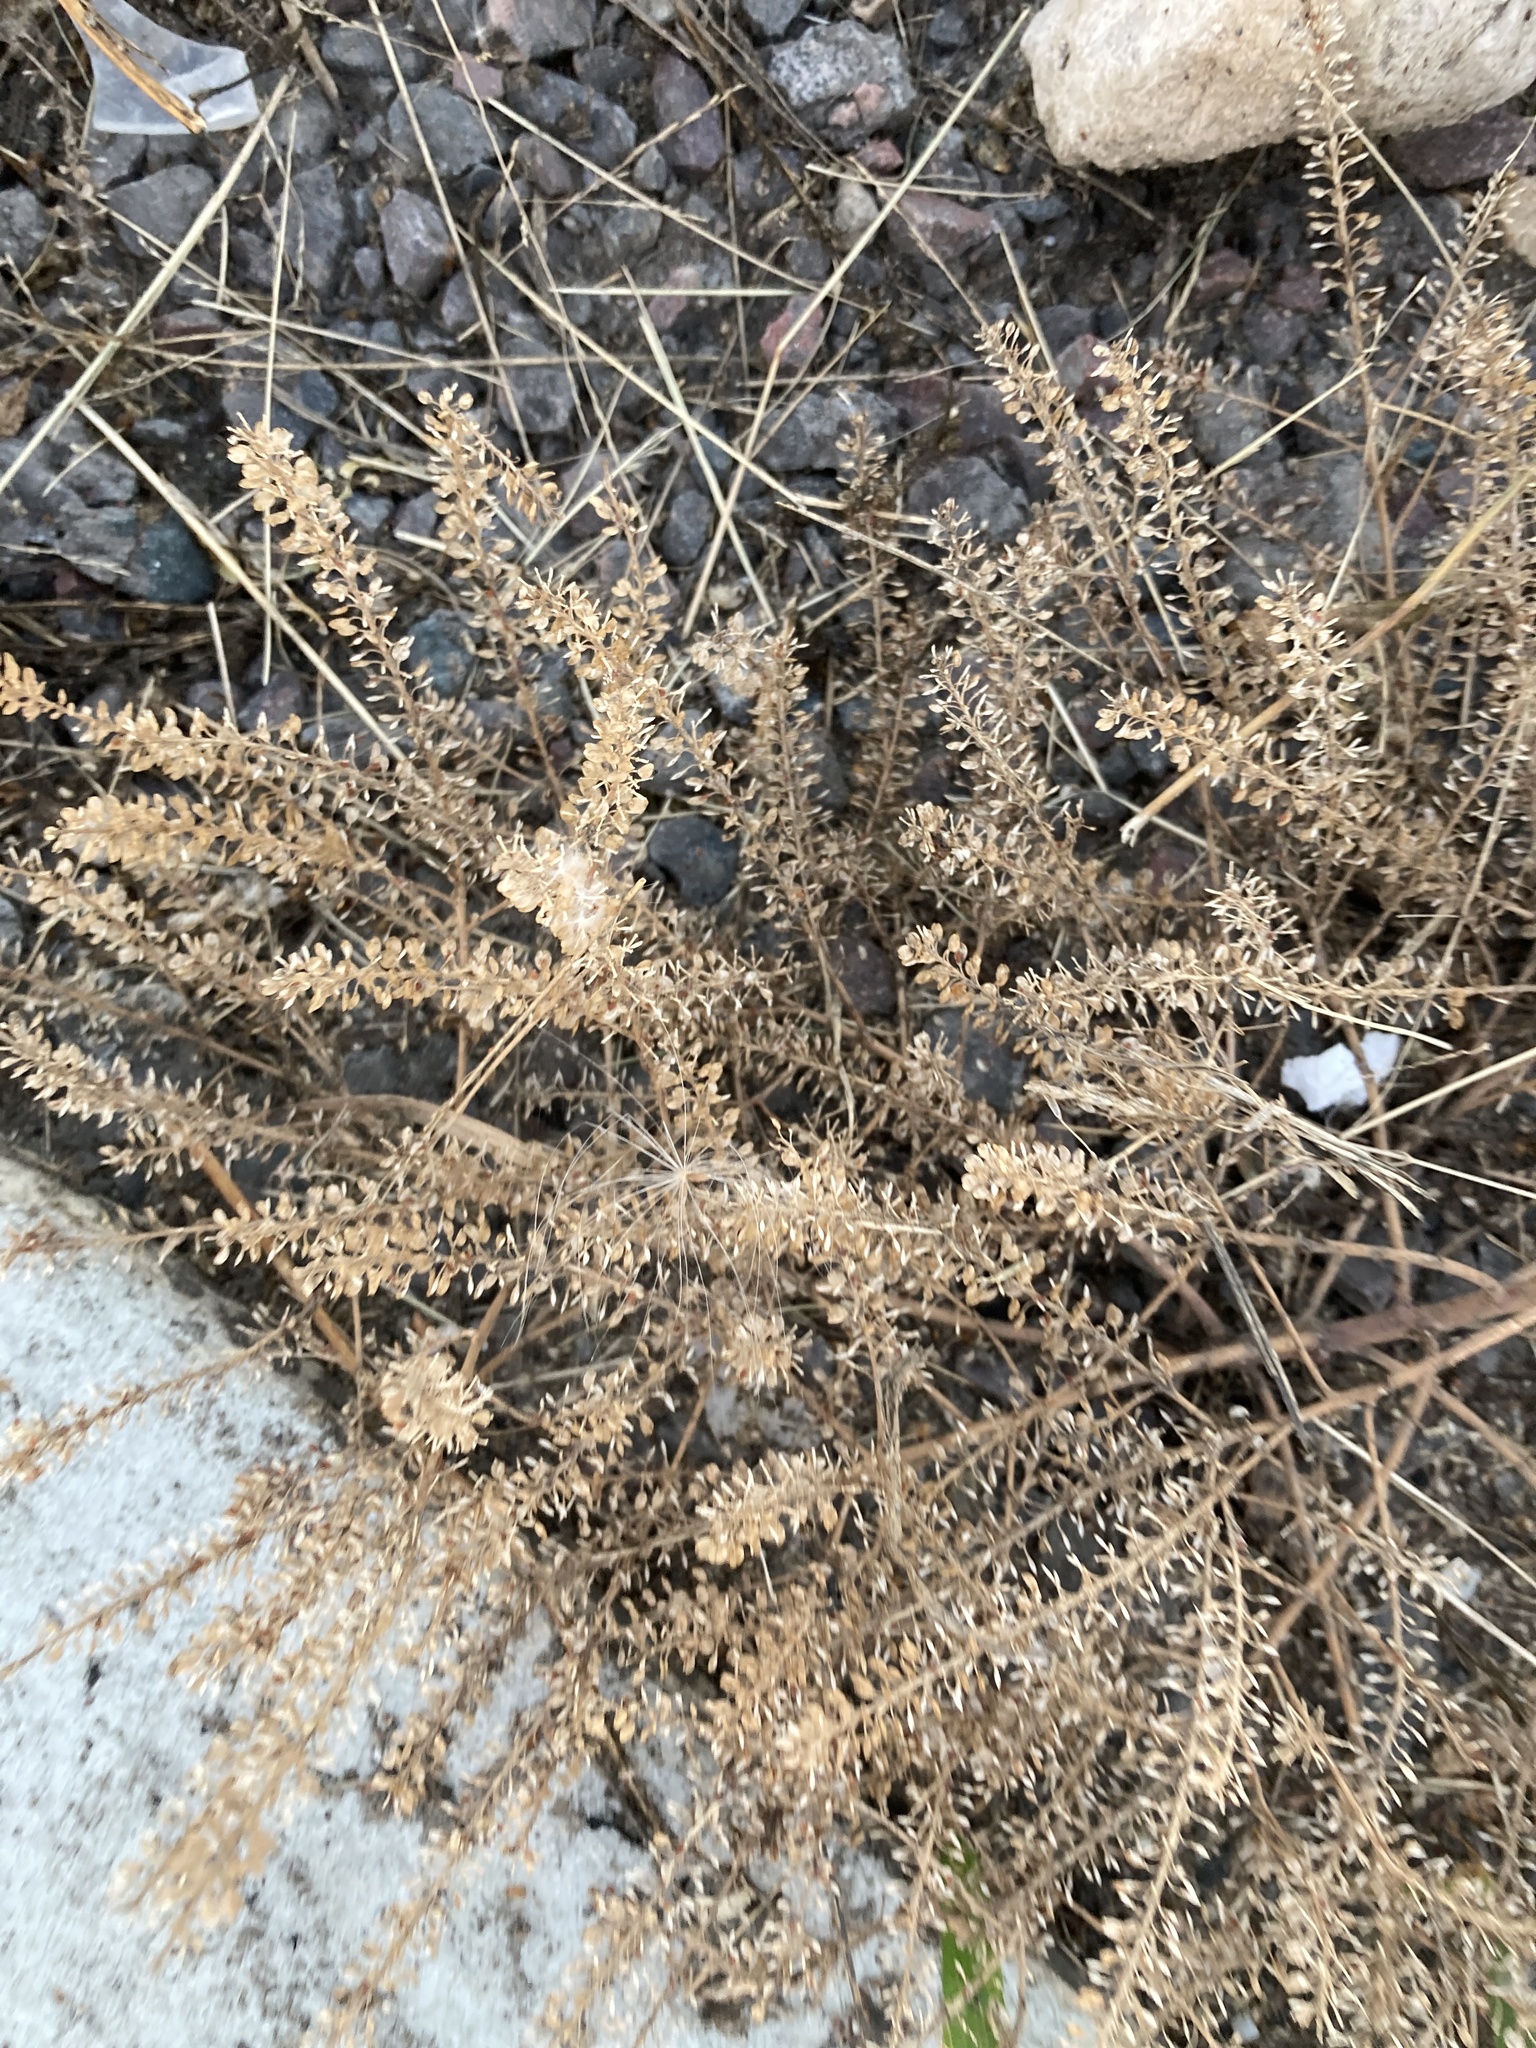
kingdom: Plantae
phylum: Tracheophyta
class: Magnoliopsida
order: Brassicales
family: Brassicaceae
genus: Lepidium
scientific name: Lepidium densiflorum
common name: Miner's pepperwort
